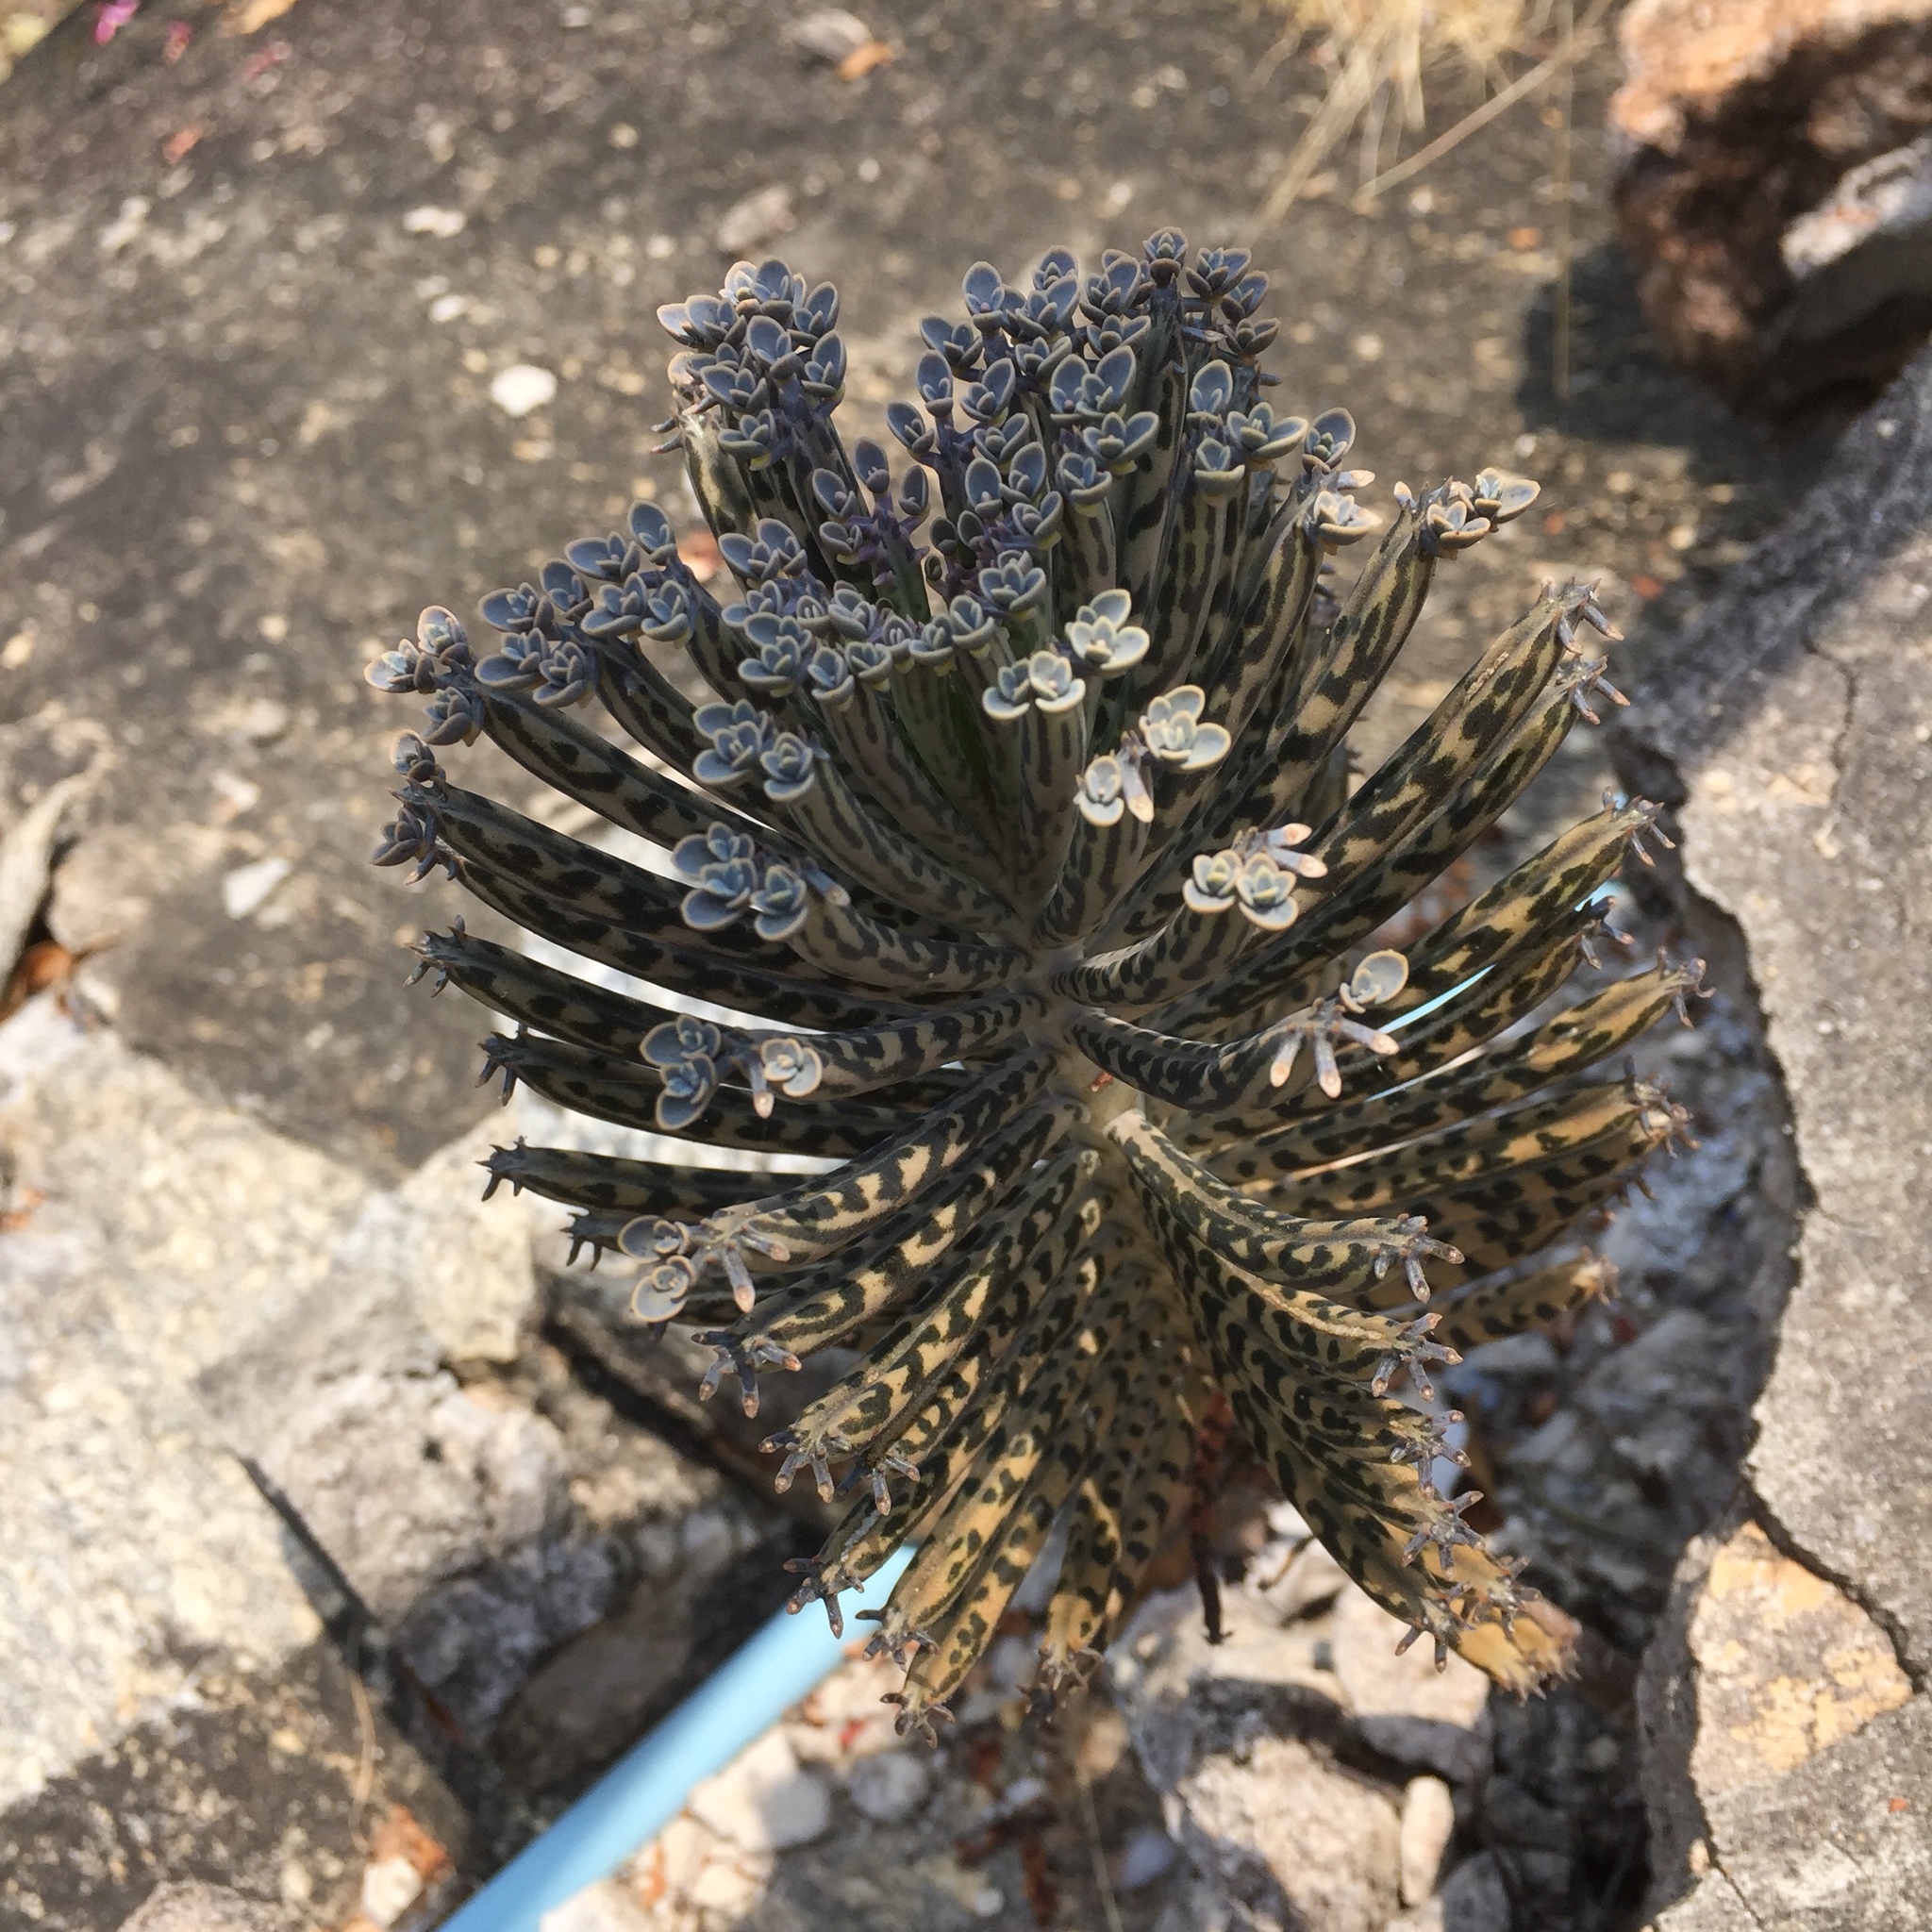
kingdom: Plantae
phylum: Tracheophyta
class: Magnoliopsida
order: Saxifragales
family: Crassulaceae
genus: Kalanchoe
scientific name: Kalanchoe delagoensis
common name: Chandelier plant
